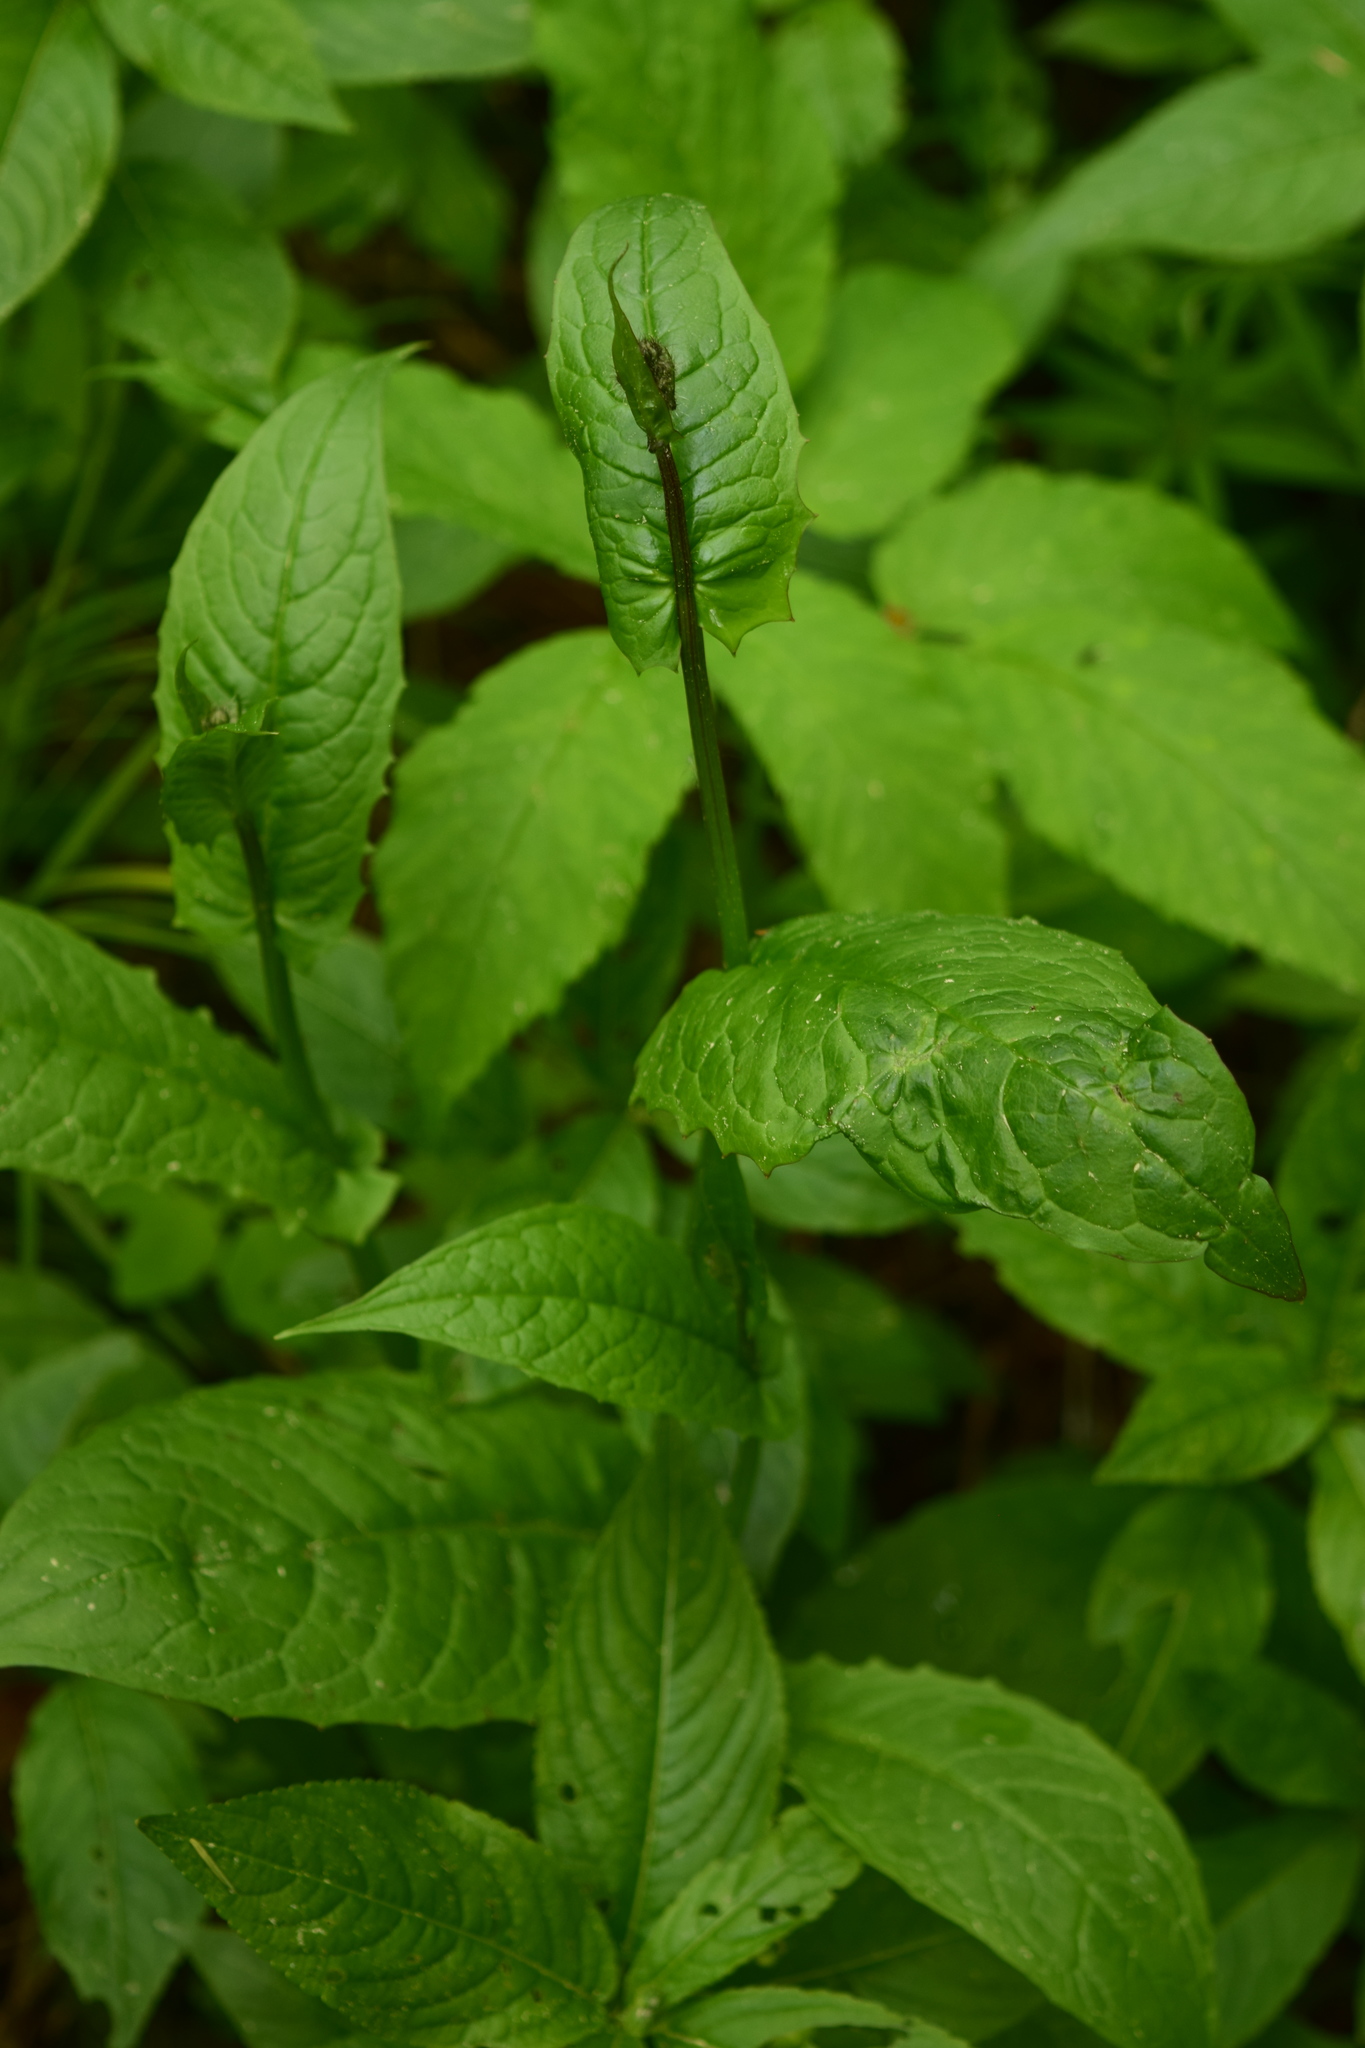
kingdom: Plantae
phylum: Tracheophyta
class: Magnoliopsida
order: Asterales
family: Asteraceae
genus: Crepis
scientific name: Crepis paludosa
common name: Marsh hawk's-beard
